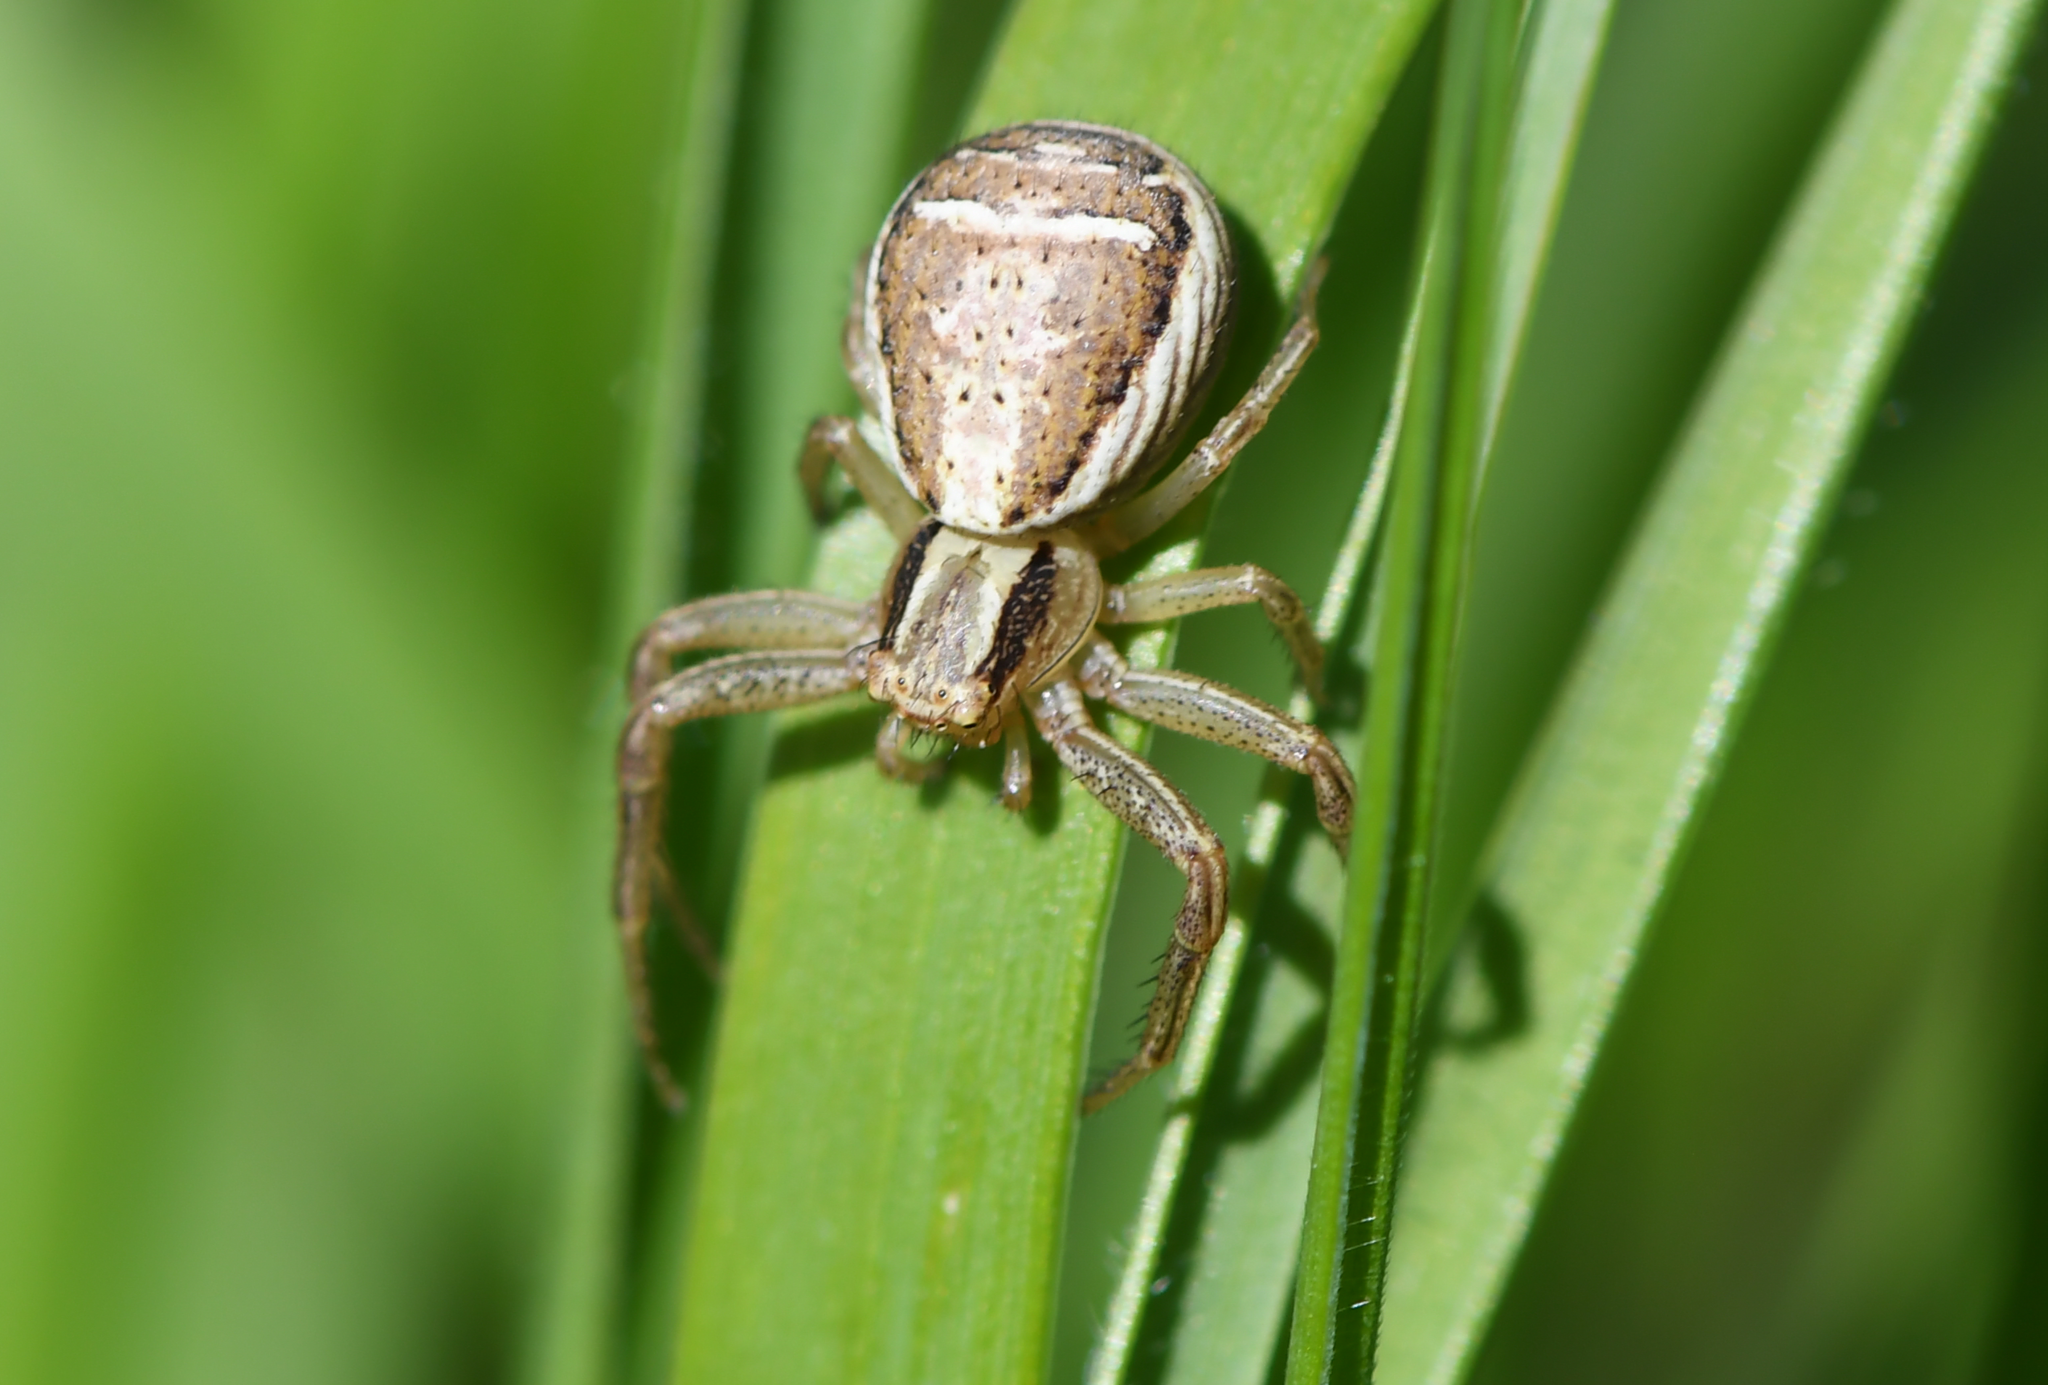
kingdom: Animalia
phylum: Arthropoda
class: Arachnida
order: Araneae
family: Thomisidae
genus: Xysticus
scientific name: Xysticus ulmi
